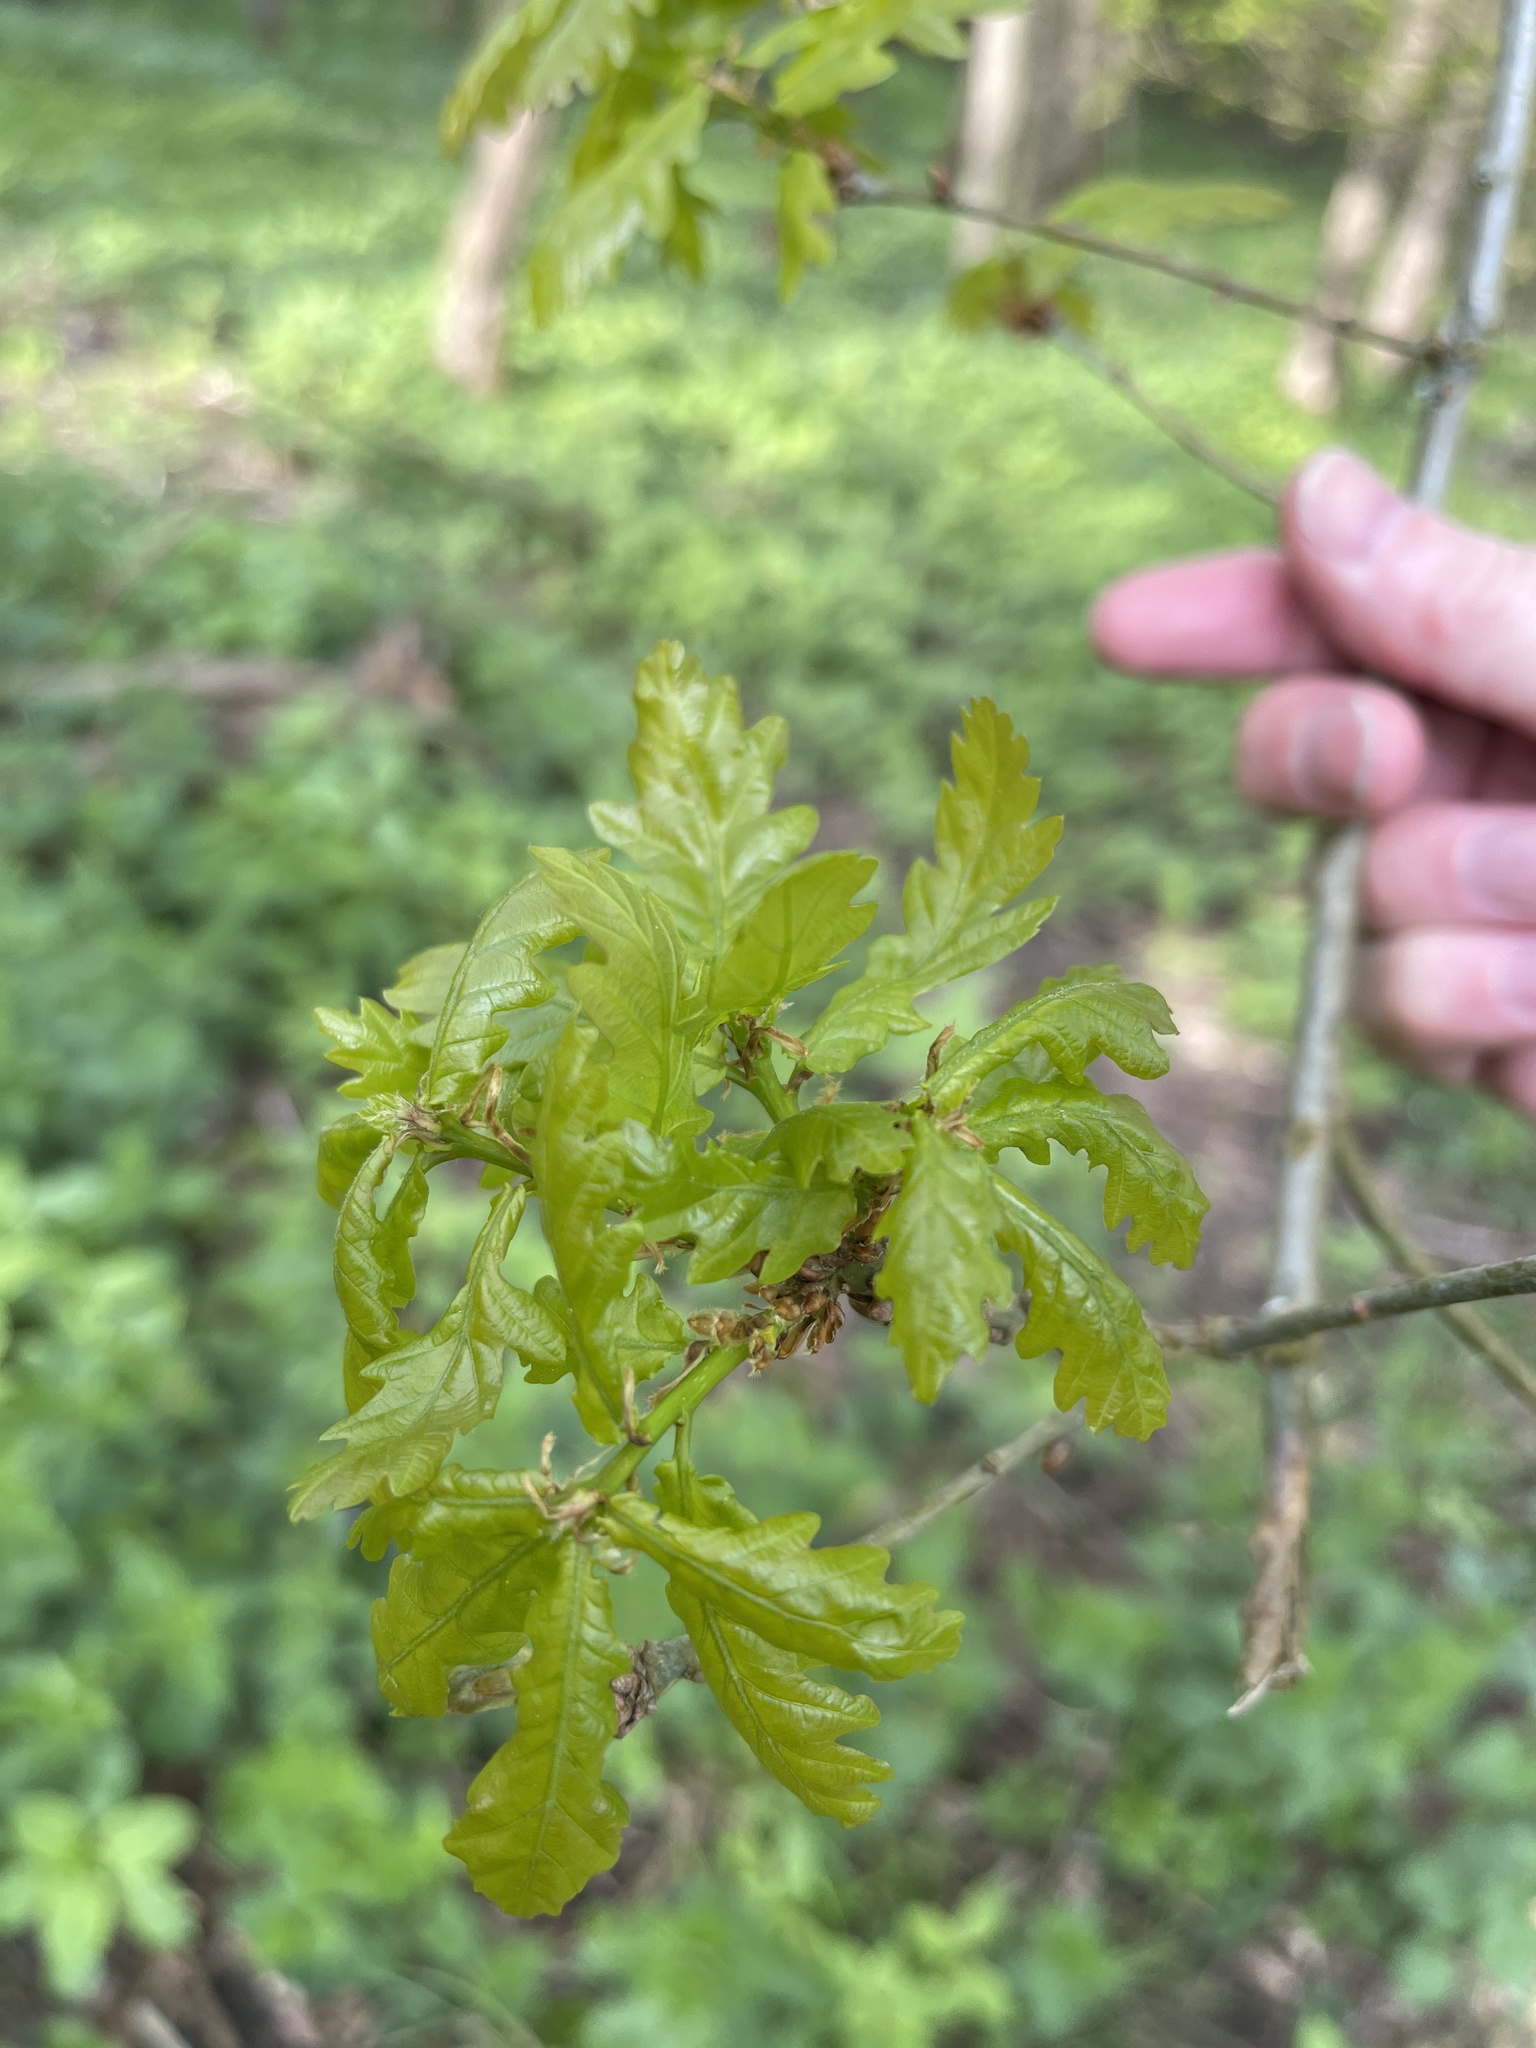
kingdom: Plantae
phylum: Tracheophyta
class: Magnoliopsida
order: Fagales
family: Fagaceae
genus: Quercus
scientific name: Quercus robur
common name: Pedunculate oak
